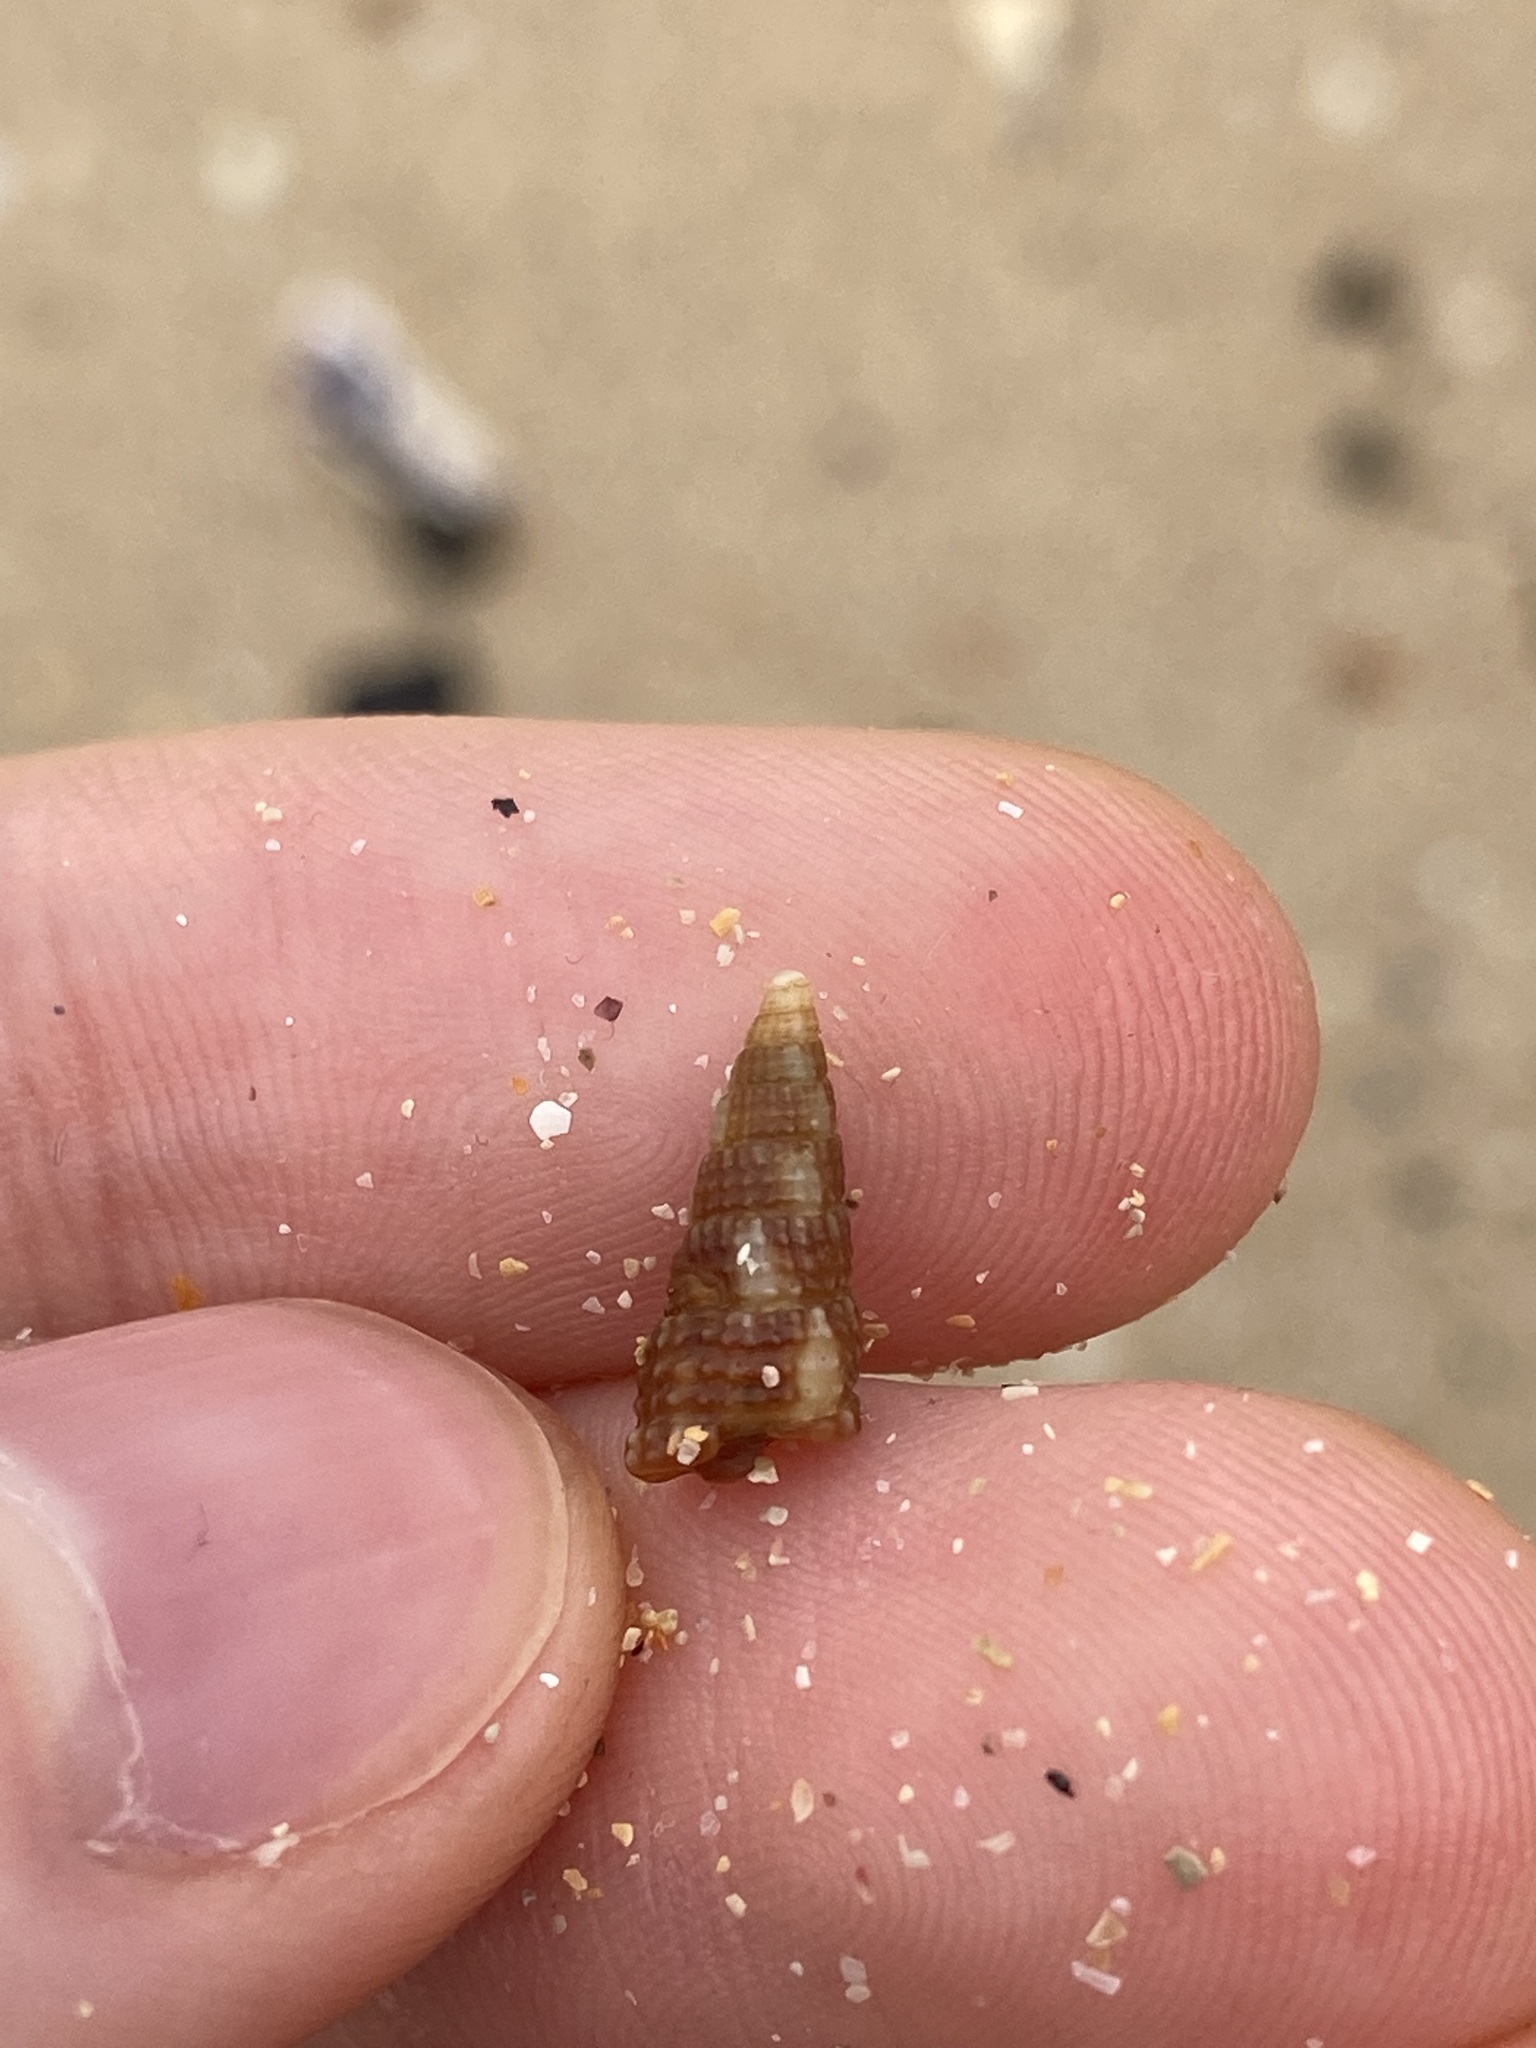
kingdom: Animalia
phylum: Mollusca
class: Gastropoda
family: Cerithiidae
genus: Cacozeliana
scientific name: Cacozeliana granarium
